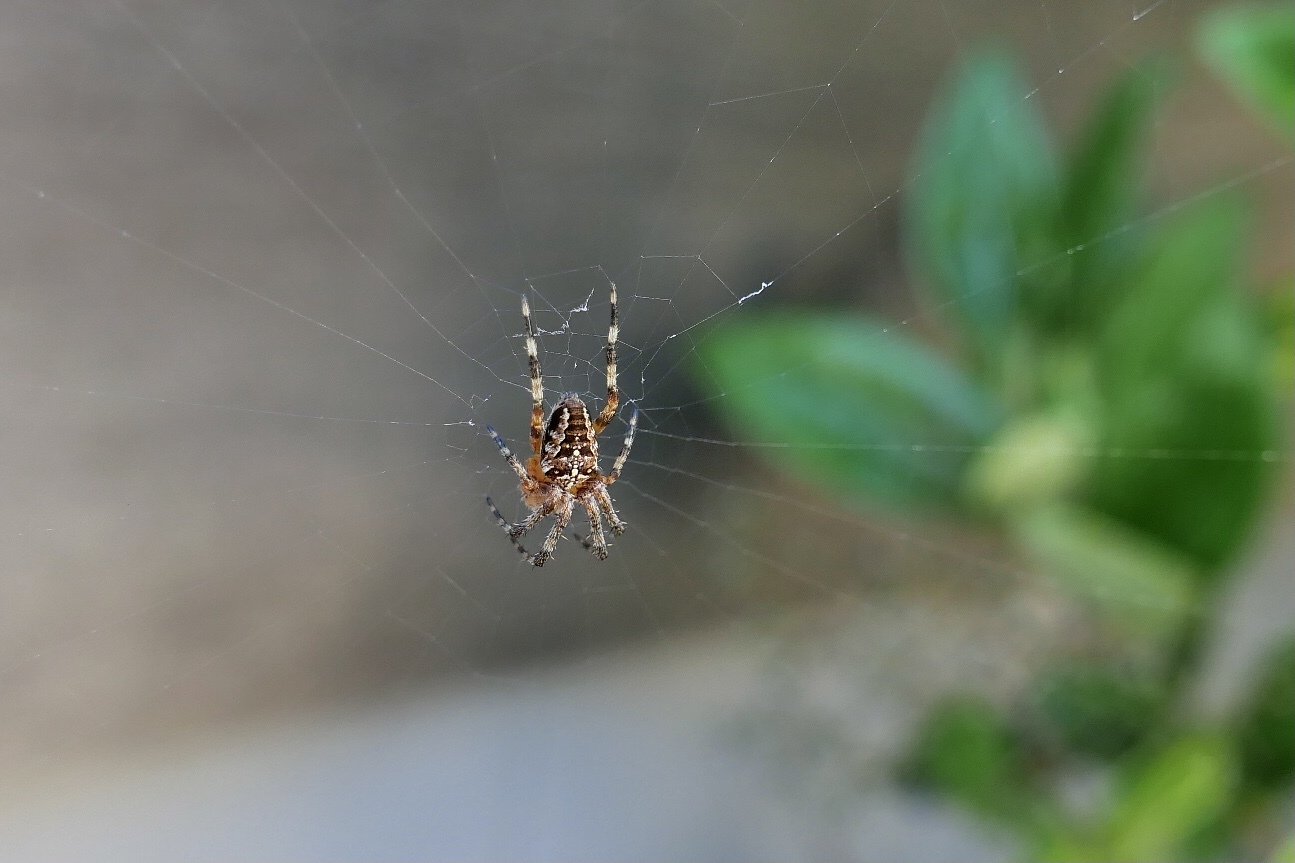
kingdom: Animalia
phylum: Arthropoda
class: Arachnida
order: Araneae
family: Araneidae
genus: Araneus
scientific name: Araneus diadematus
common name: Cross orbweaver
